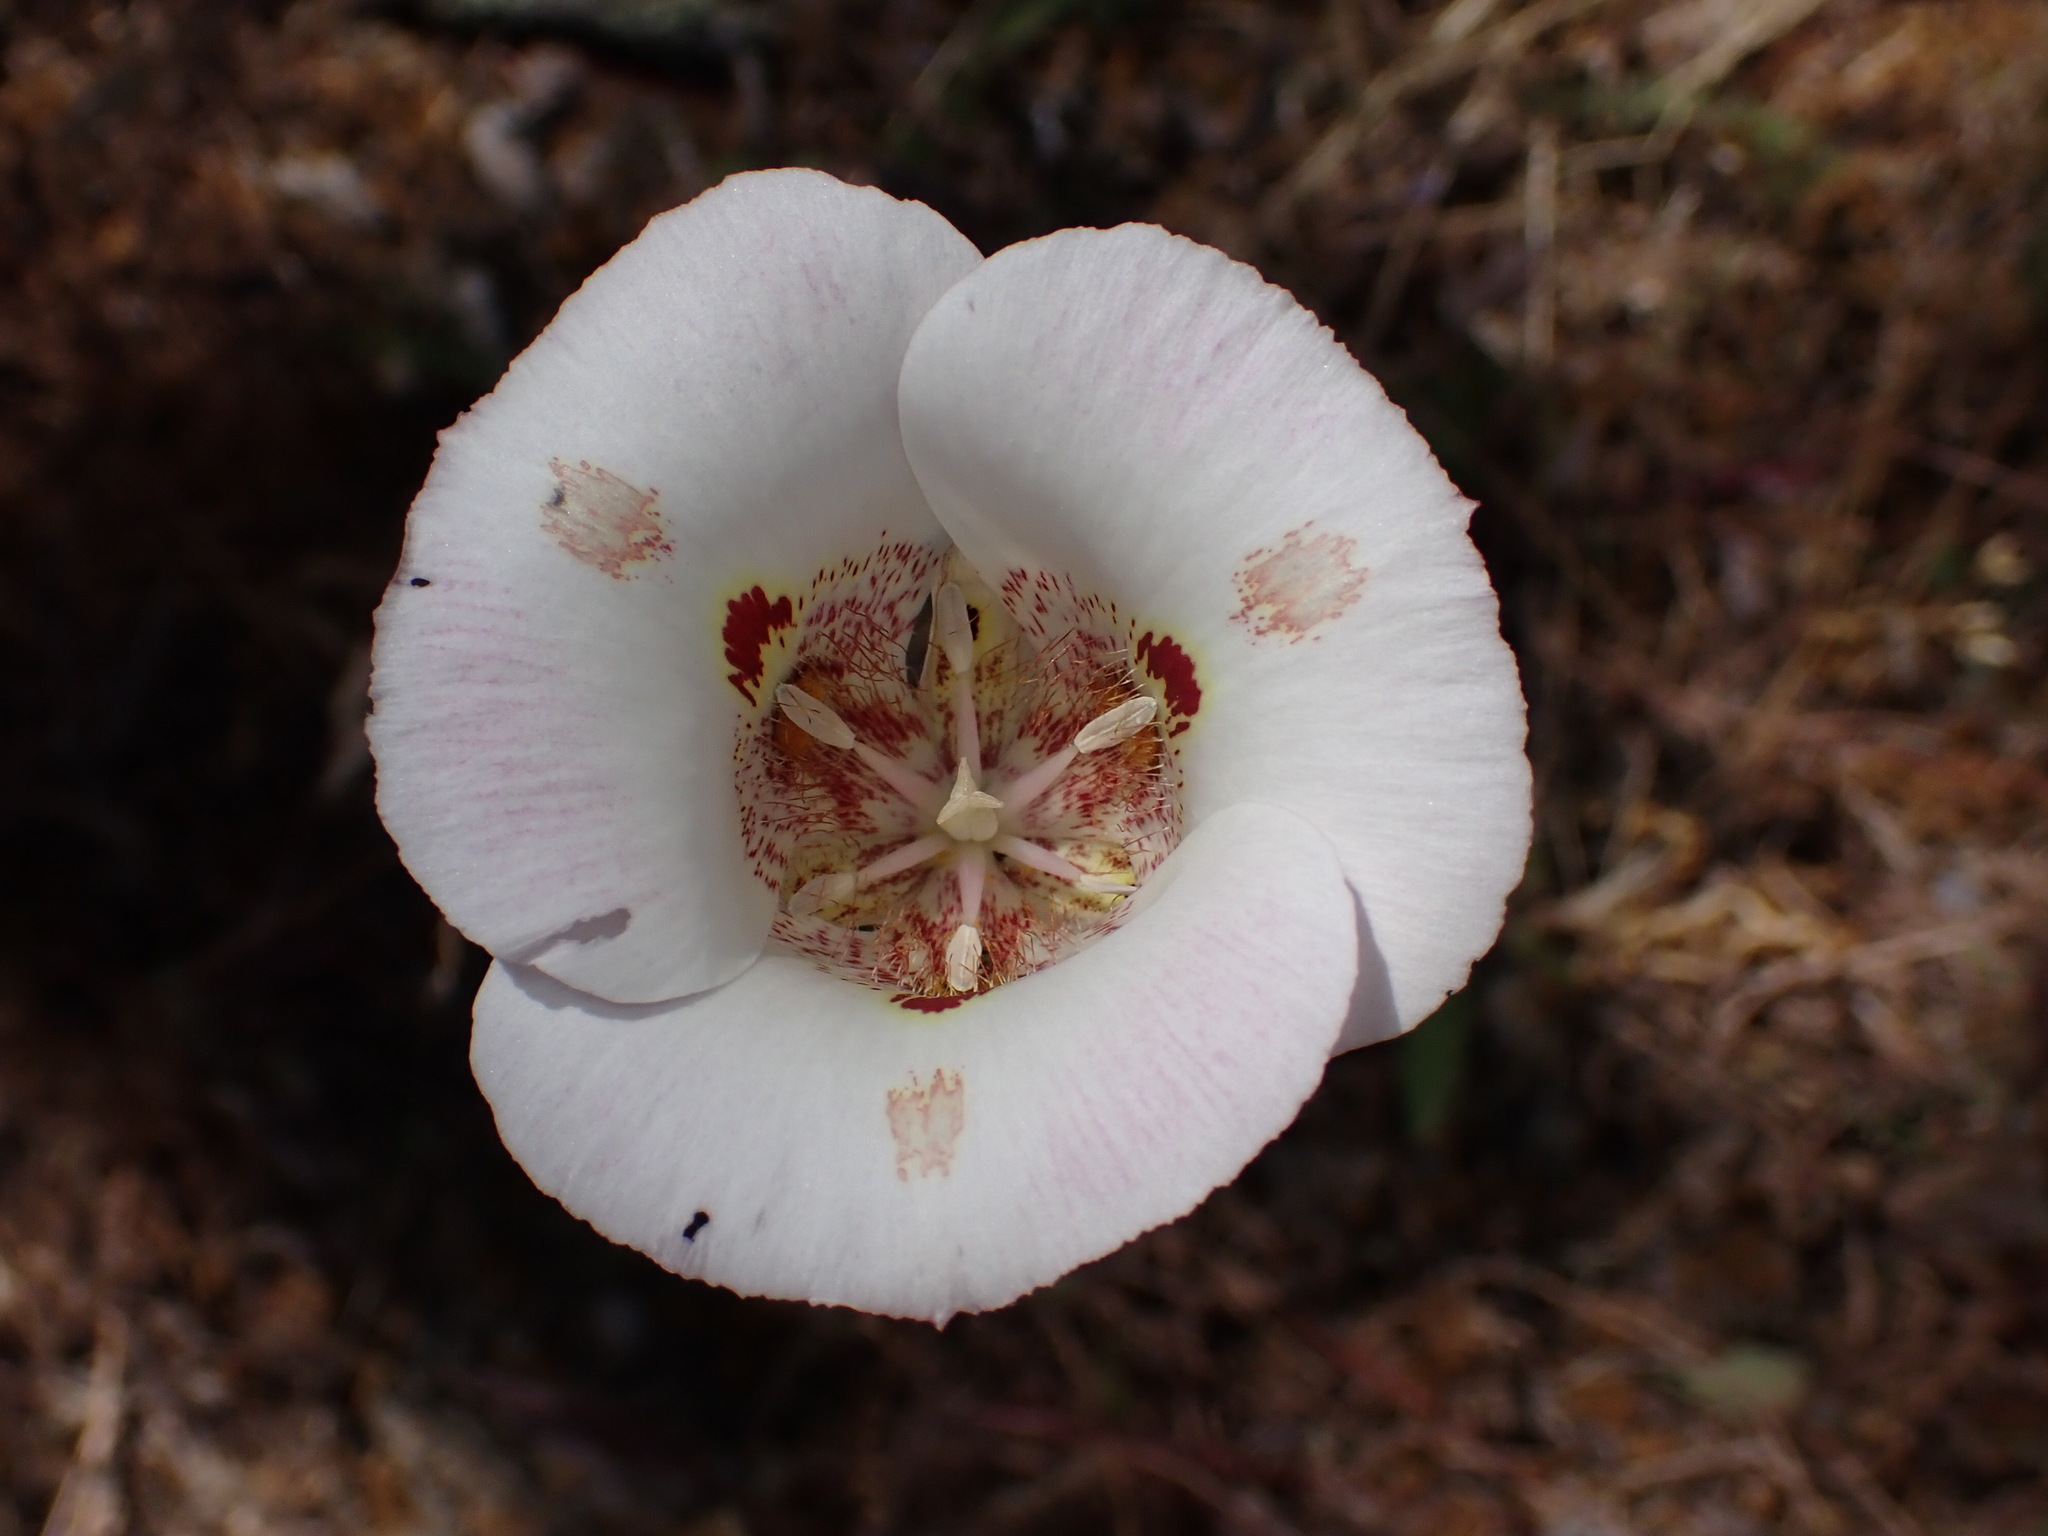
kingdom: Plantae
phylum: Tracheophyta
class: Liliopsida
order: Liliales
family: Liliaceae
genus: Calochortus
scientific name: Calochortus venustus
